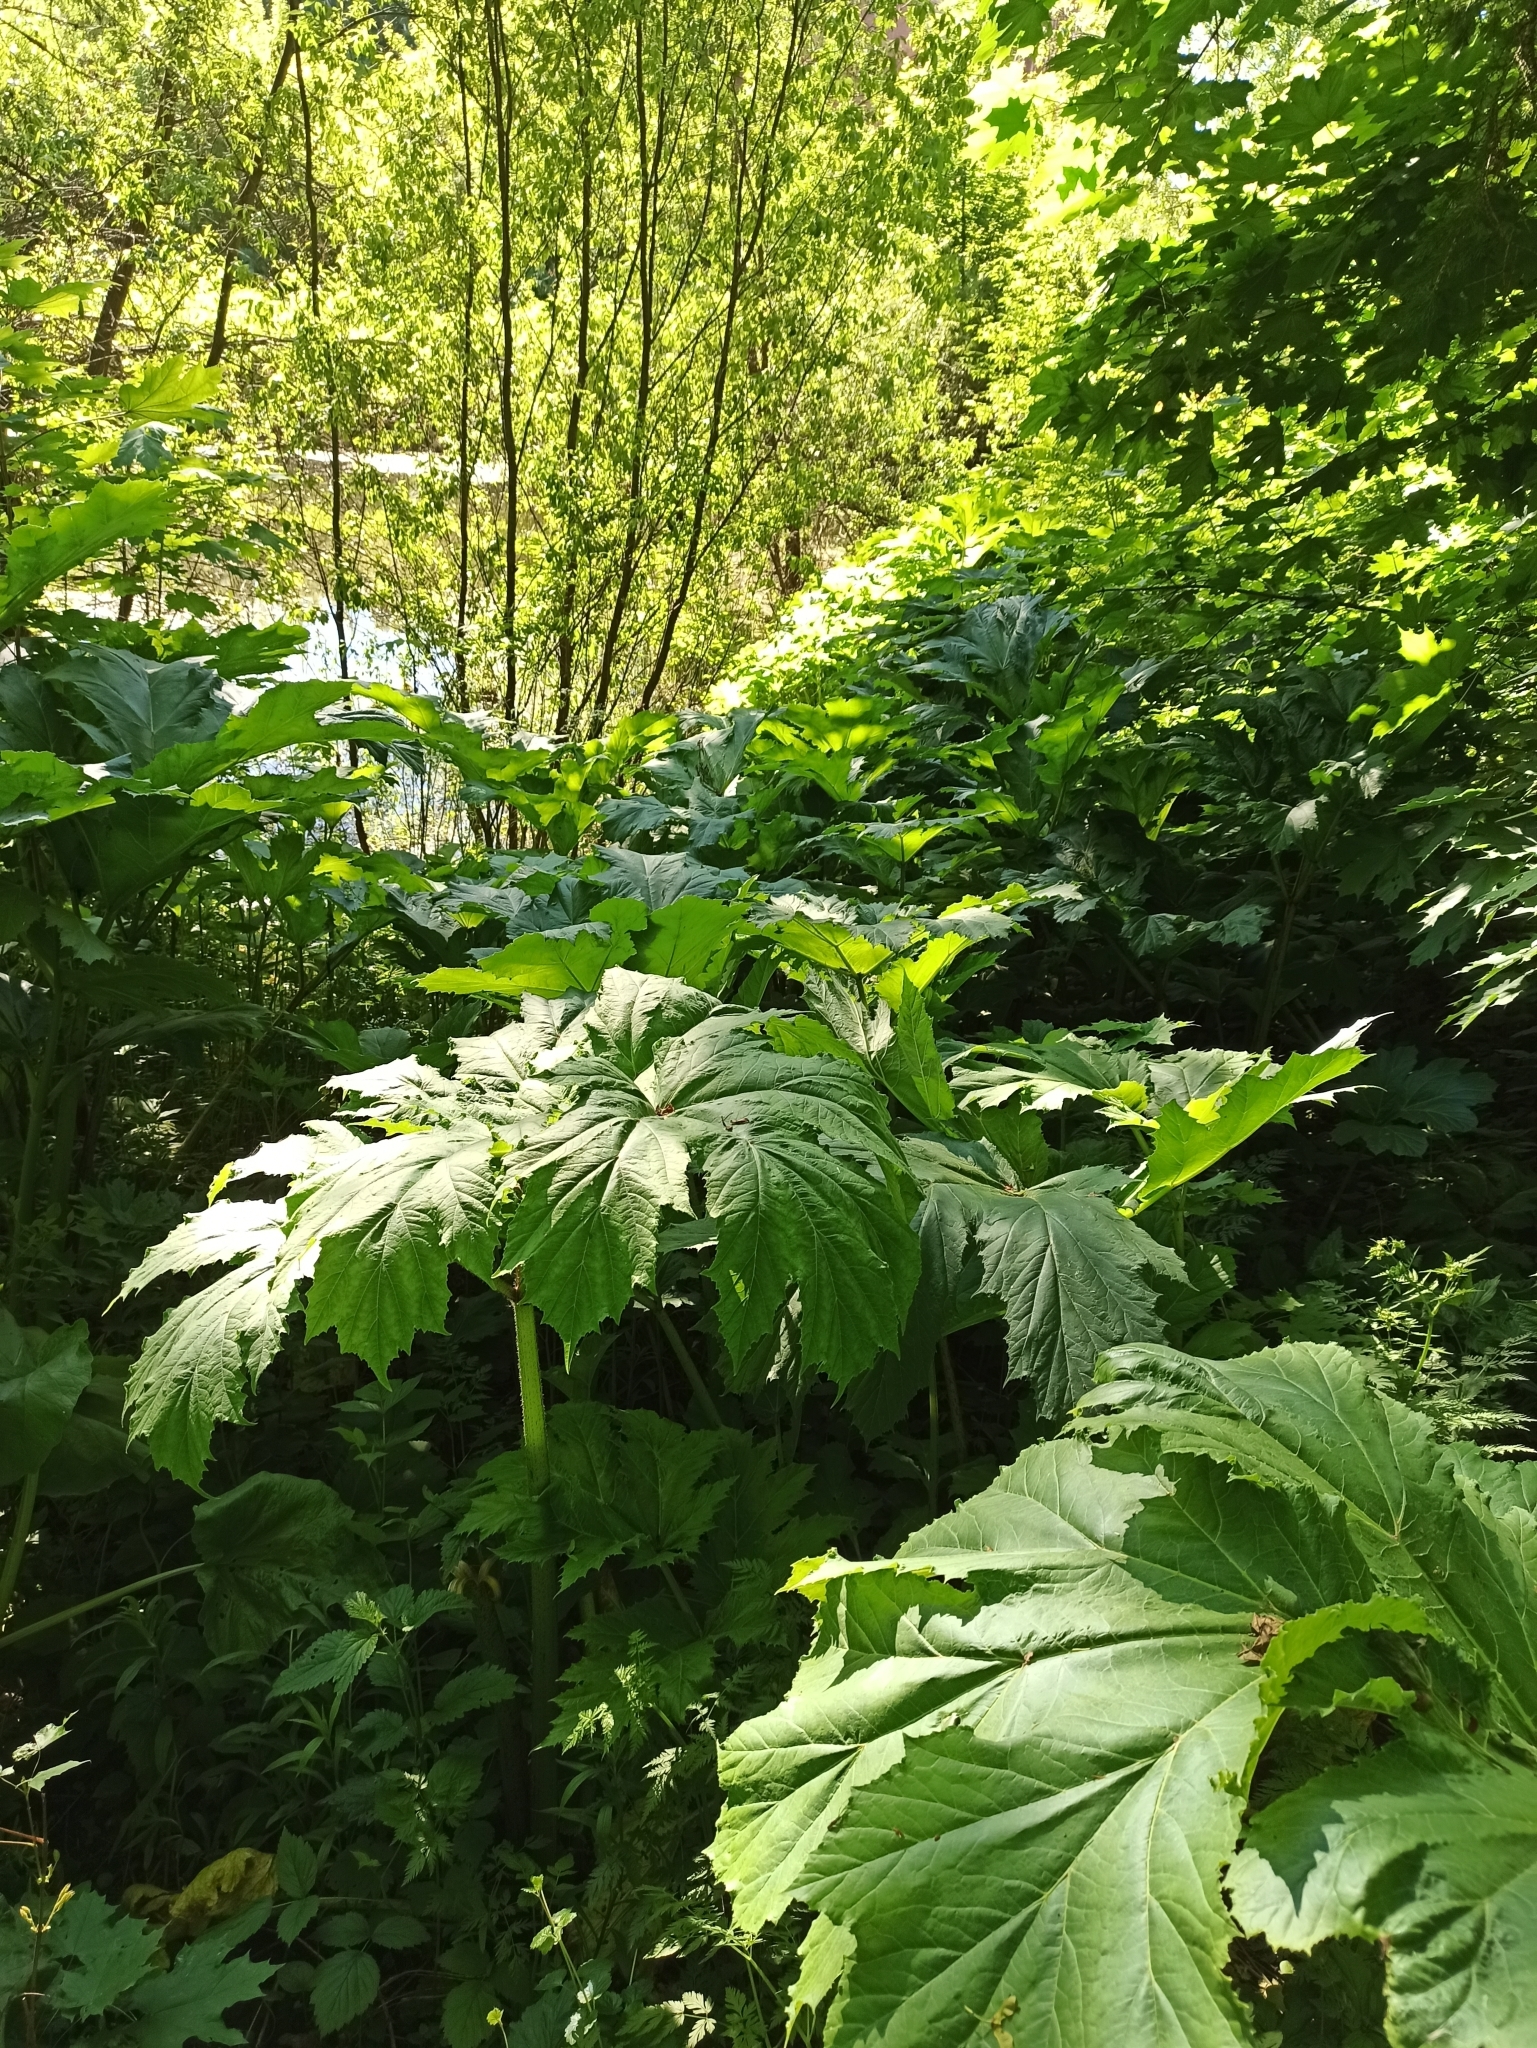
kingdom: Plantae
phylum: Tracheophyta
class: Magnoliopsida
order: Apiales
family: Apiaceae
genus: Heracleum
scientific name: Heracleum sosnowskyi
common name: Sosnowsky's hogweed
